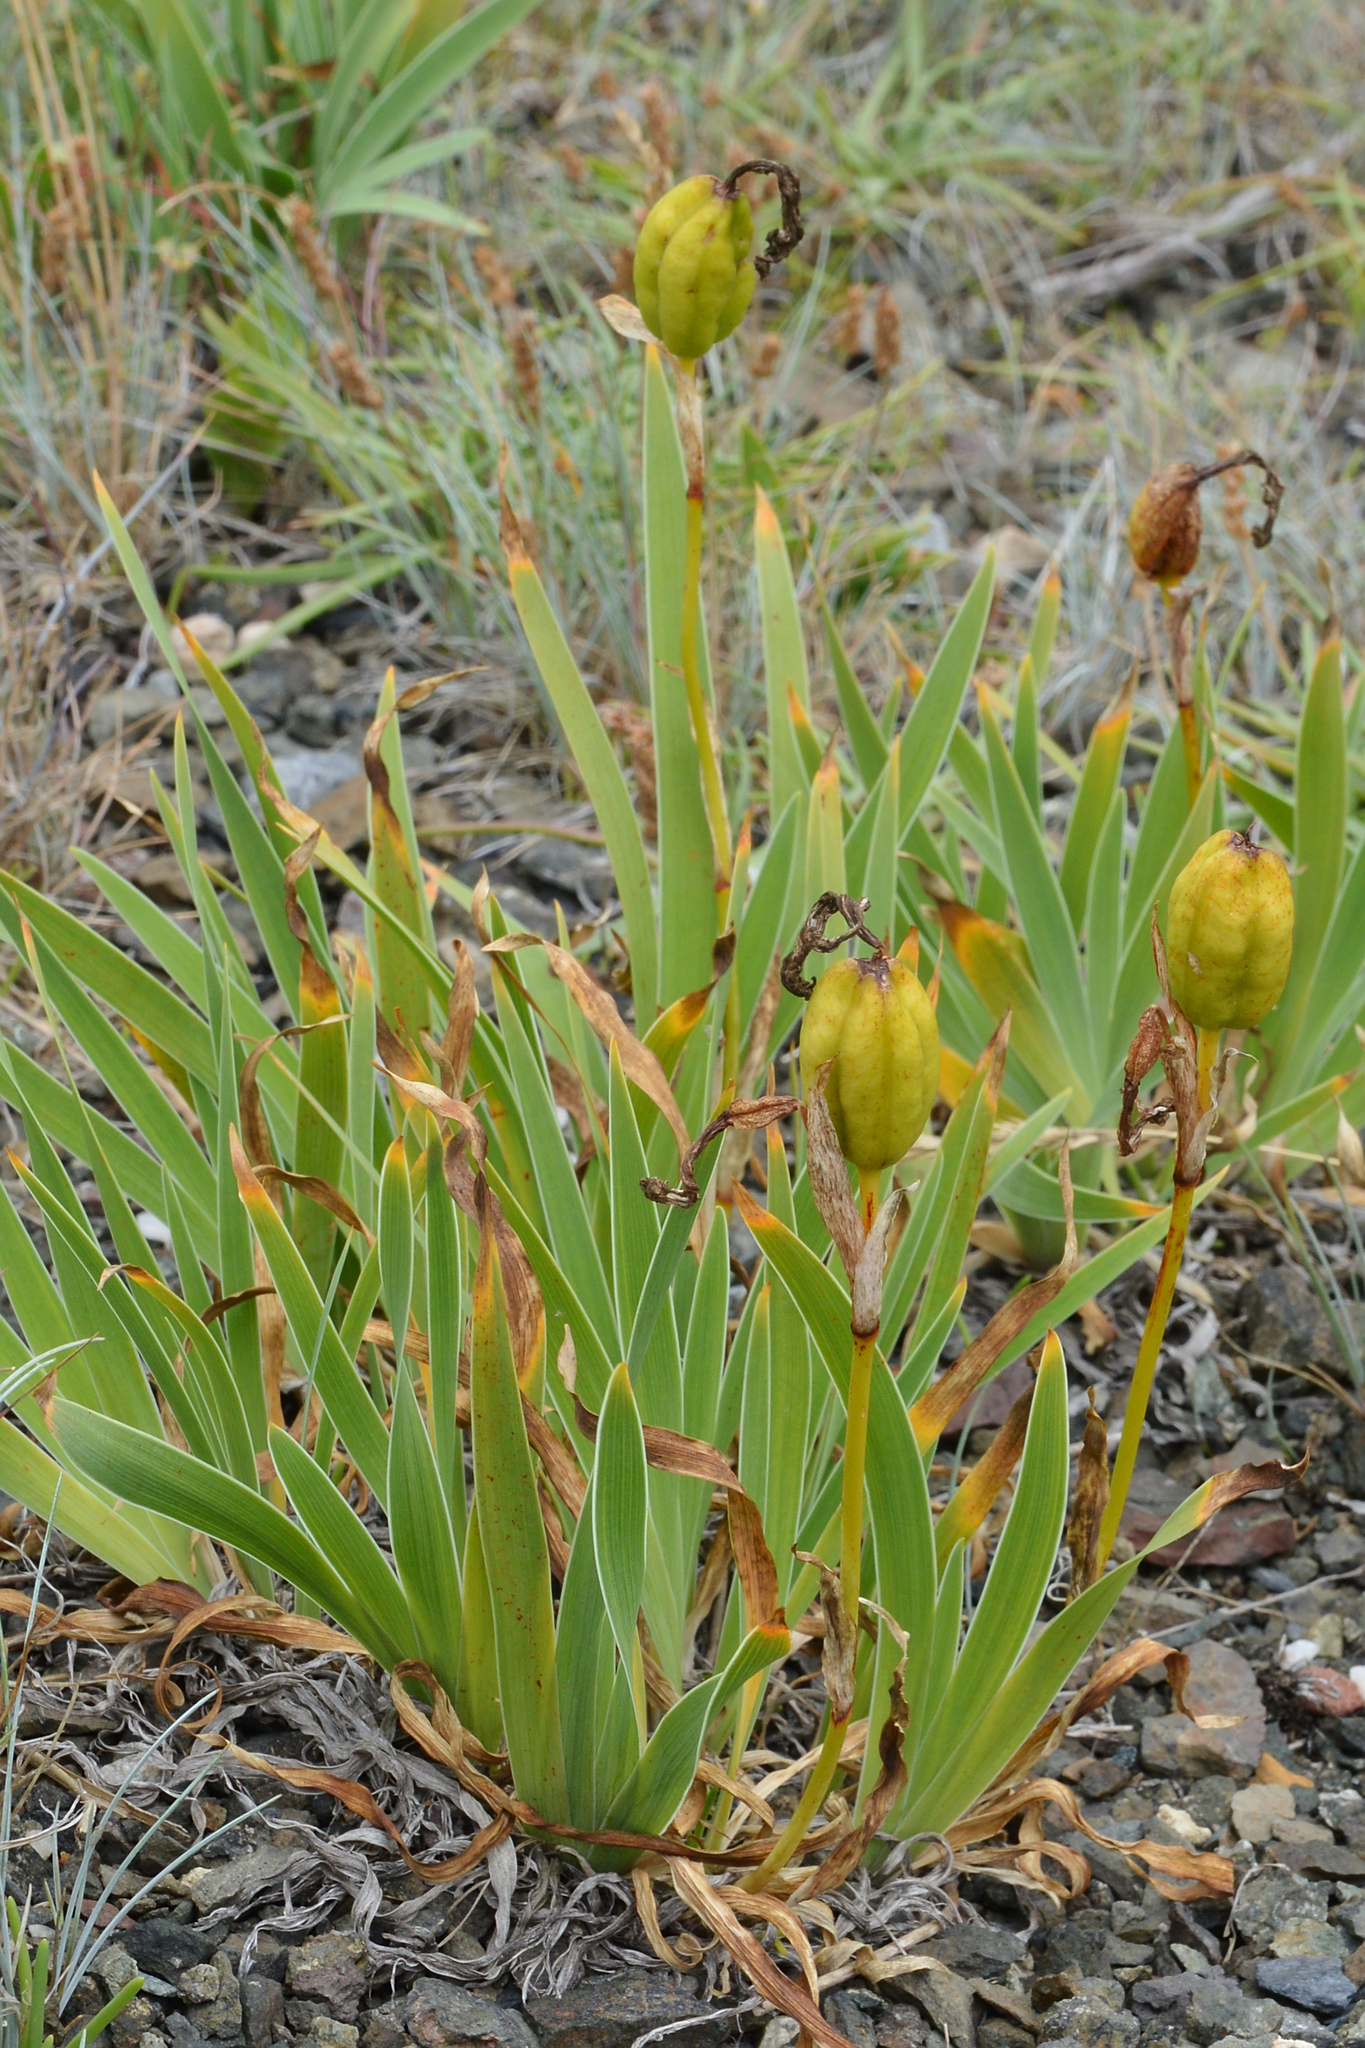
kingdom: Plantae
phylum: Tracheophyta
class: Liliopsida
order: Asparagales
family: Iridaceae
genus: Iris
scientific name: Iris hookeri
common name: Canada beach-head iris
